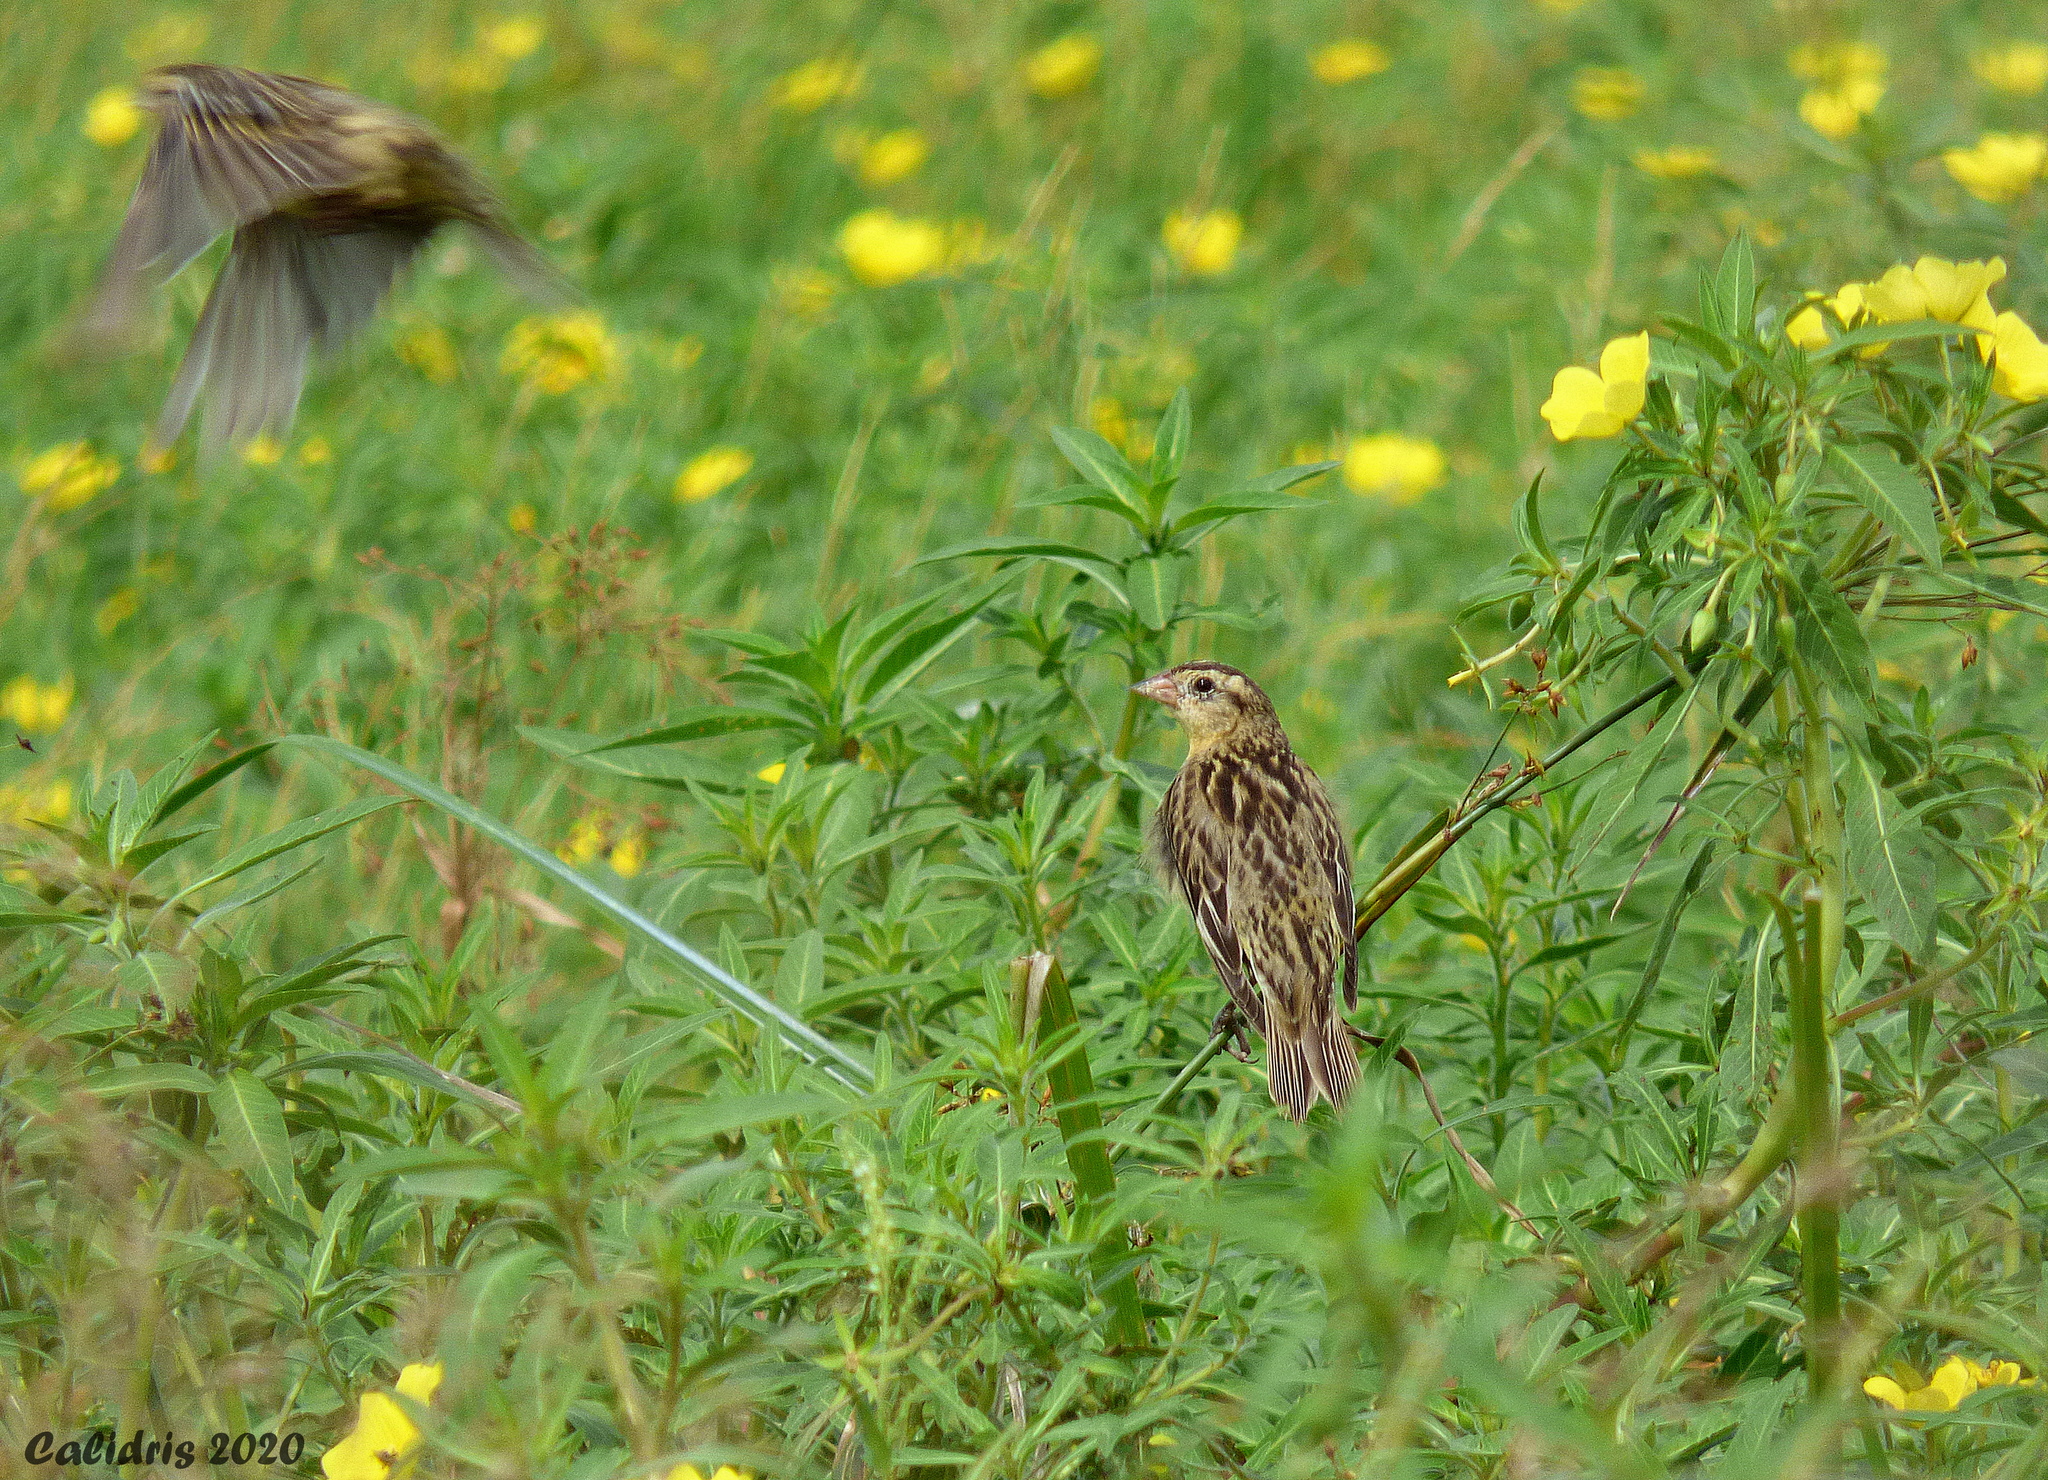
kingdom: Animalia
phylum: Chordata
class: Aves
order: Passeriformes
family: Icteridae
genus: Dolichonyx
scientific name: Dolichonyx oryzivorus
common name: Bobolink
